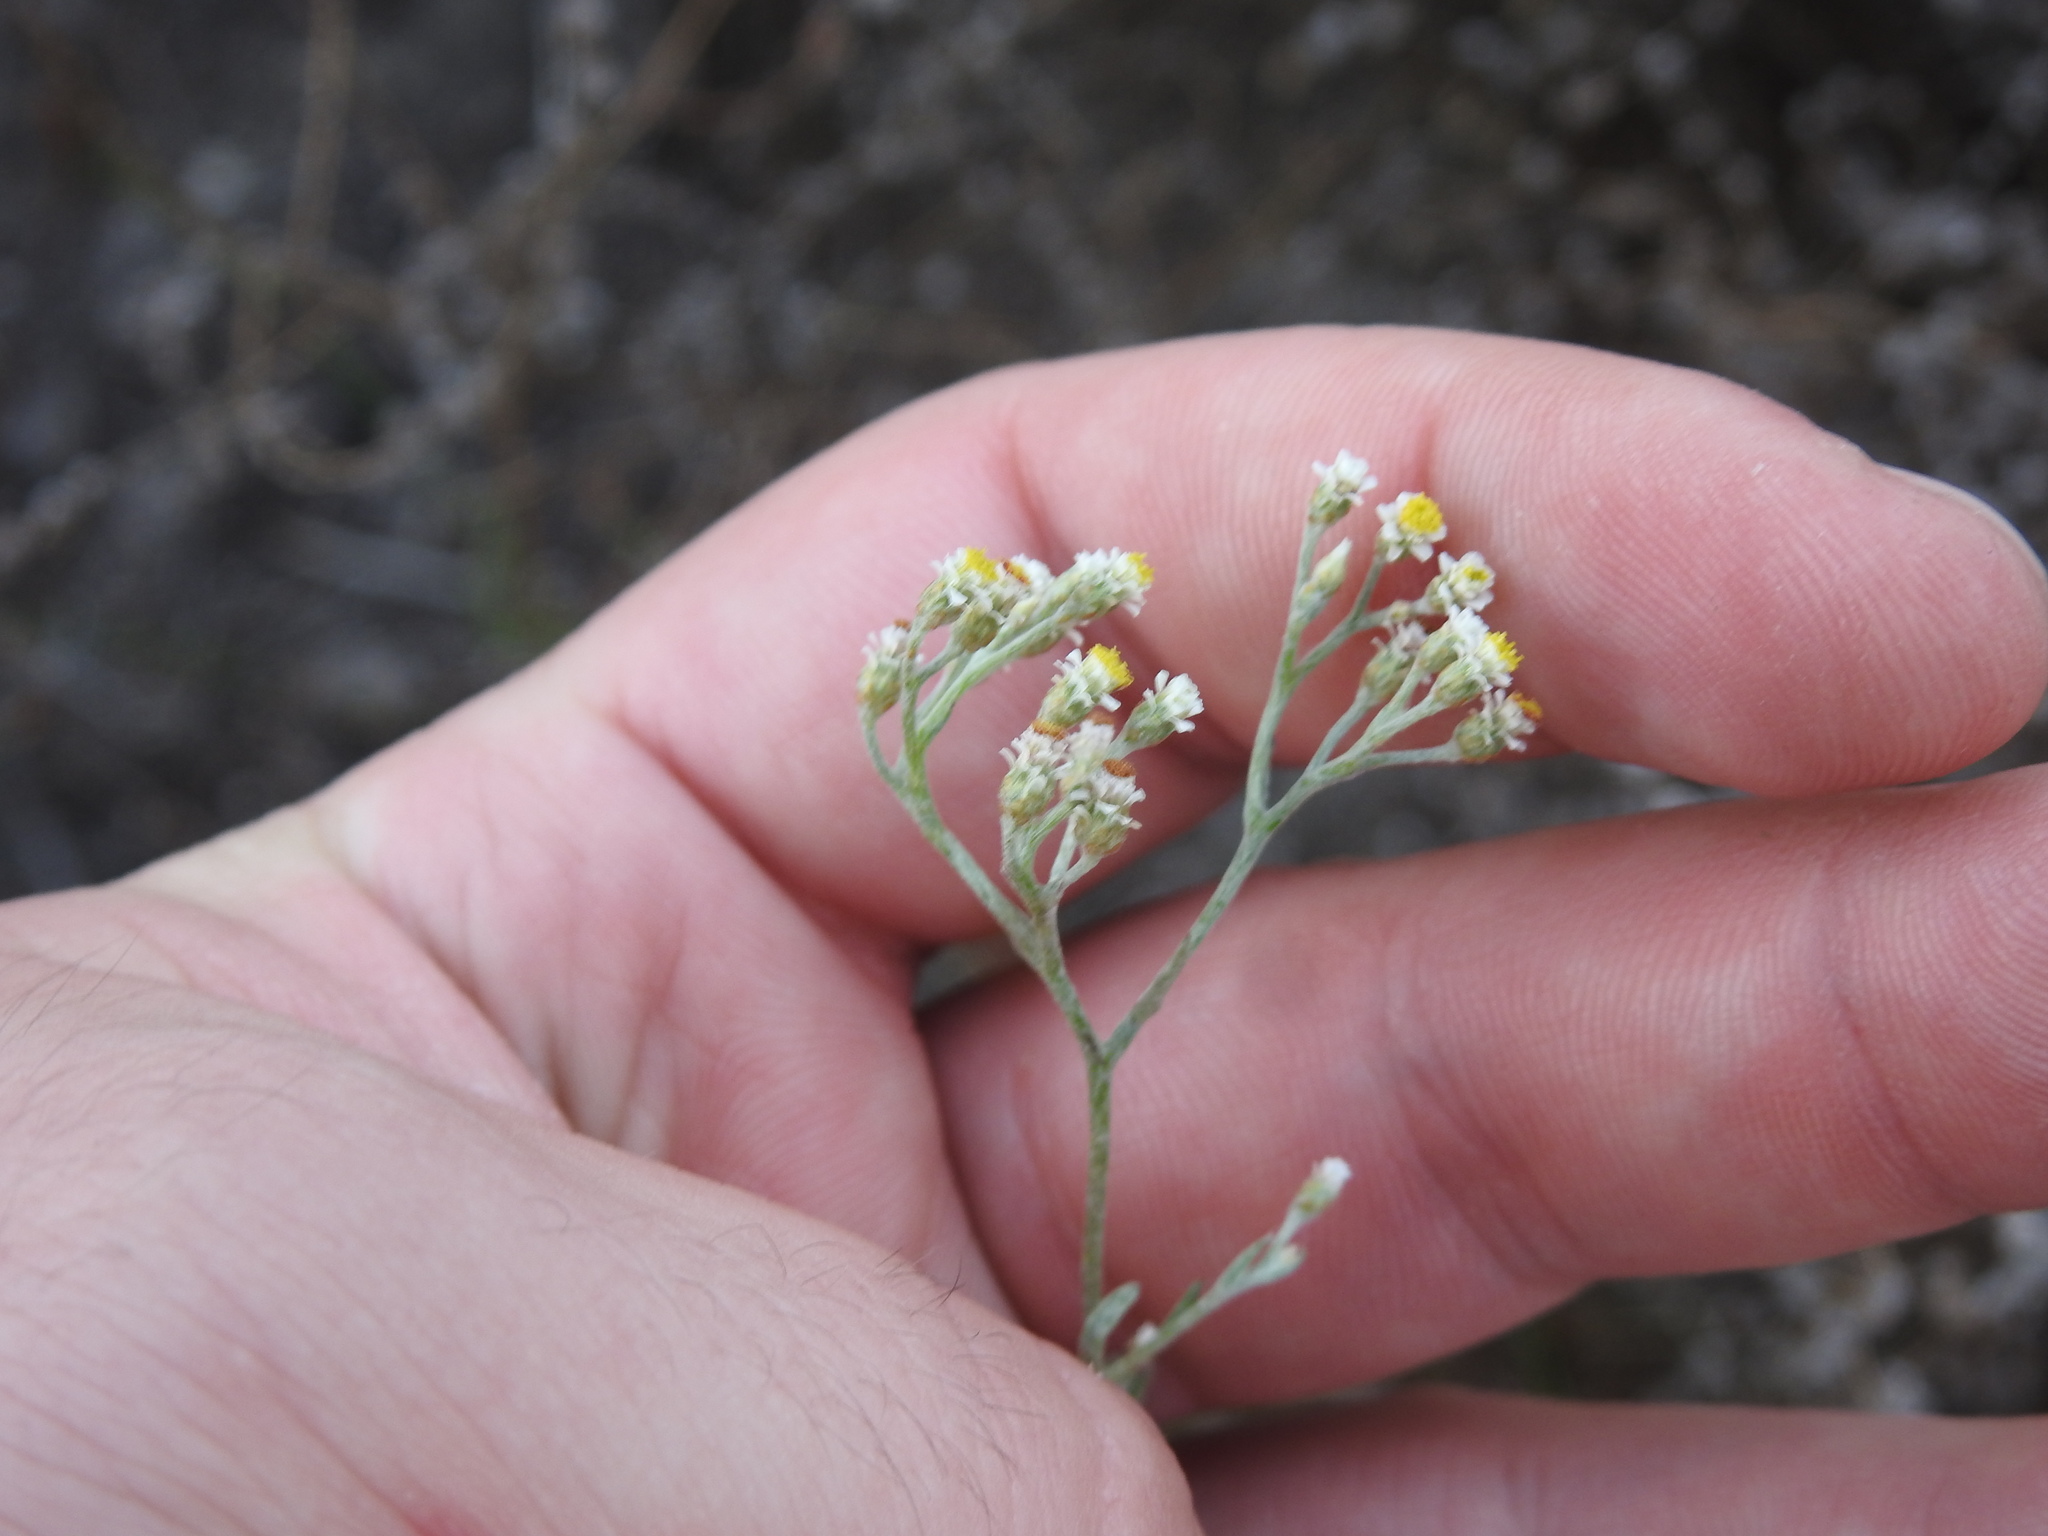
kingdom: Plantae
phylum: Tracheophyta
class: Magnoliopsida
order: Asterales
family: Asteraceae
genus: Helichrysum
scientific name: Helichrysum indicum
